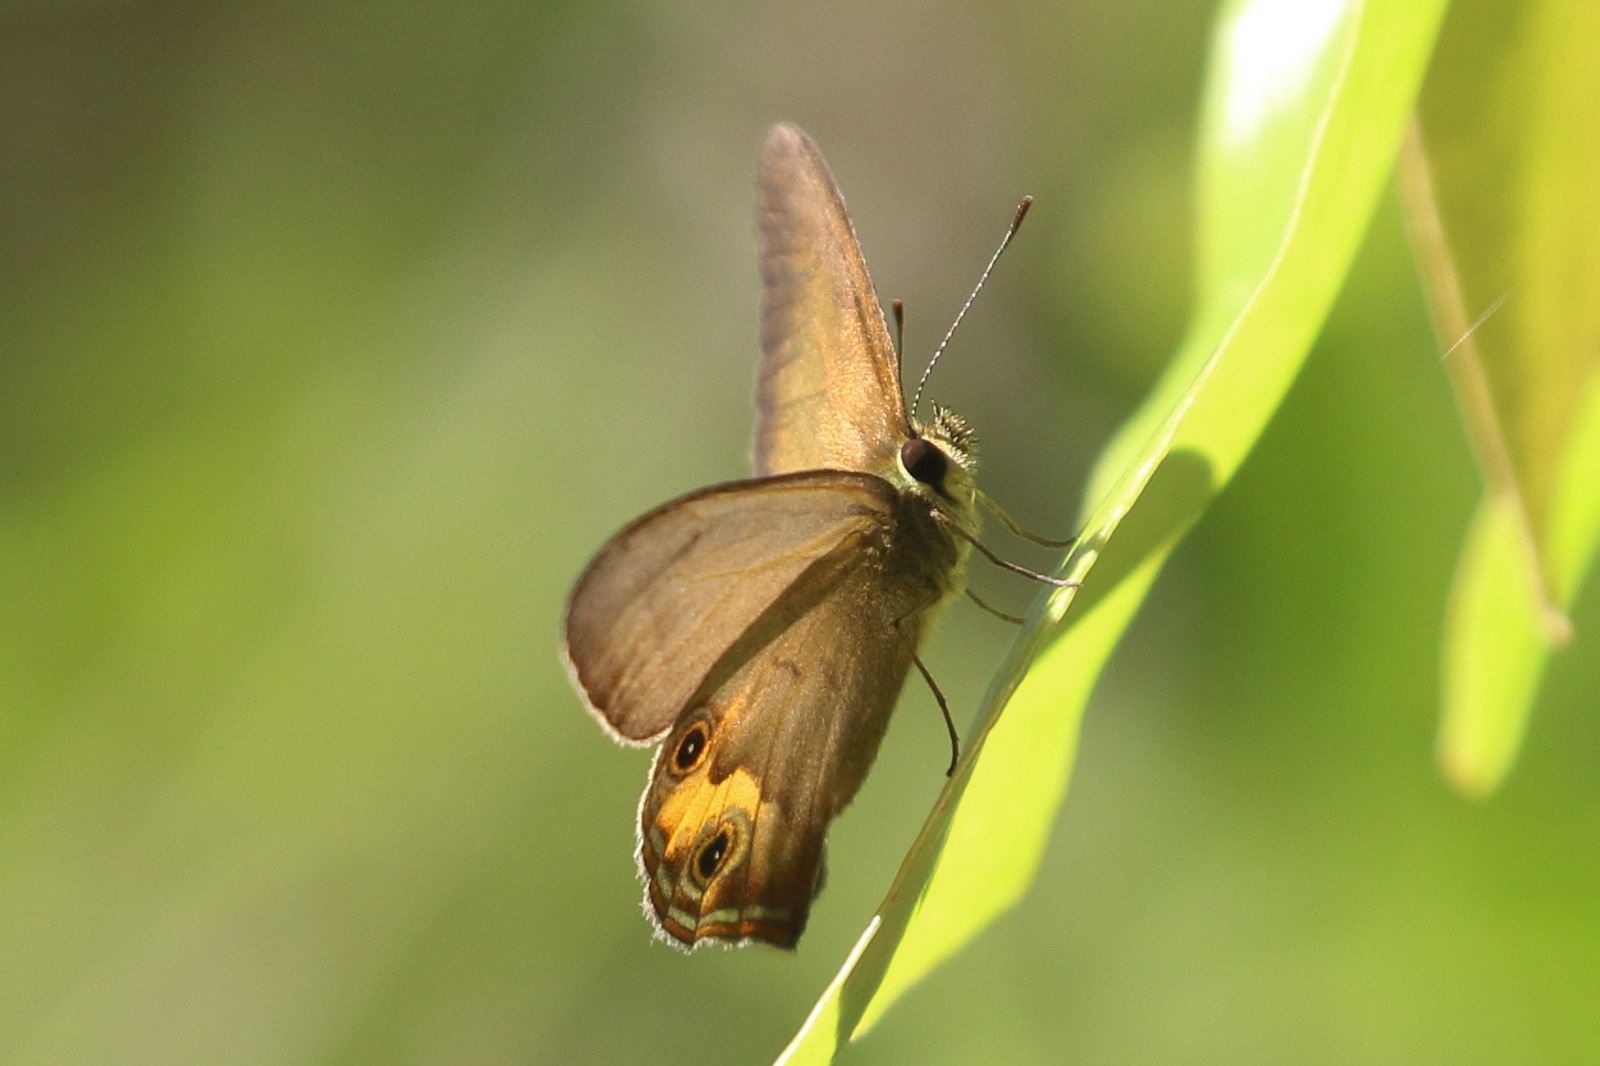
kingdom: Animalia
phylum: Arthropoda
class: Insecta
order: Lepidoptera
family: Nymphalidae
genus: Hypocysta
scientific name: Hypocysta metirius
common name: Brown ringlet
